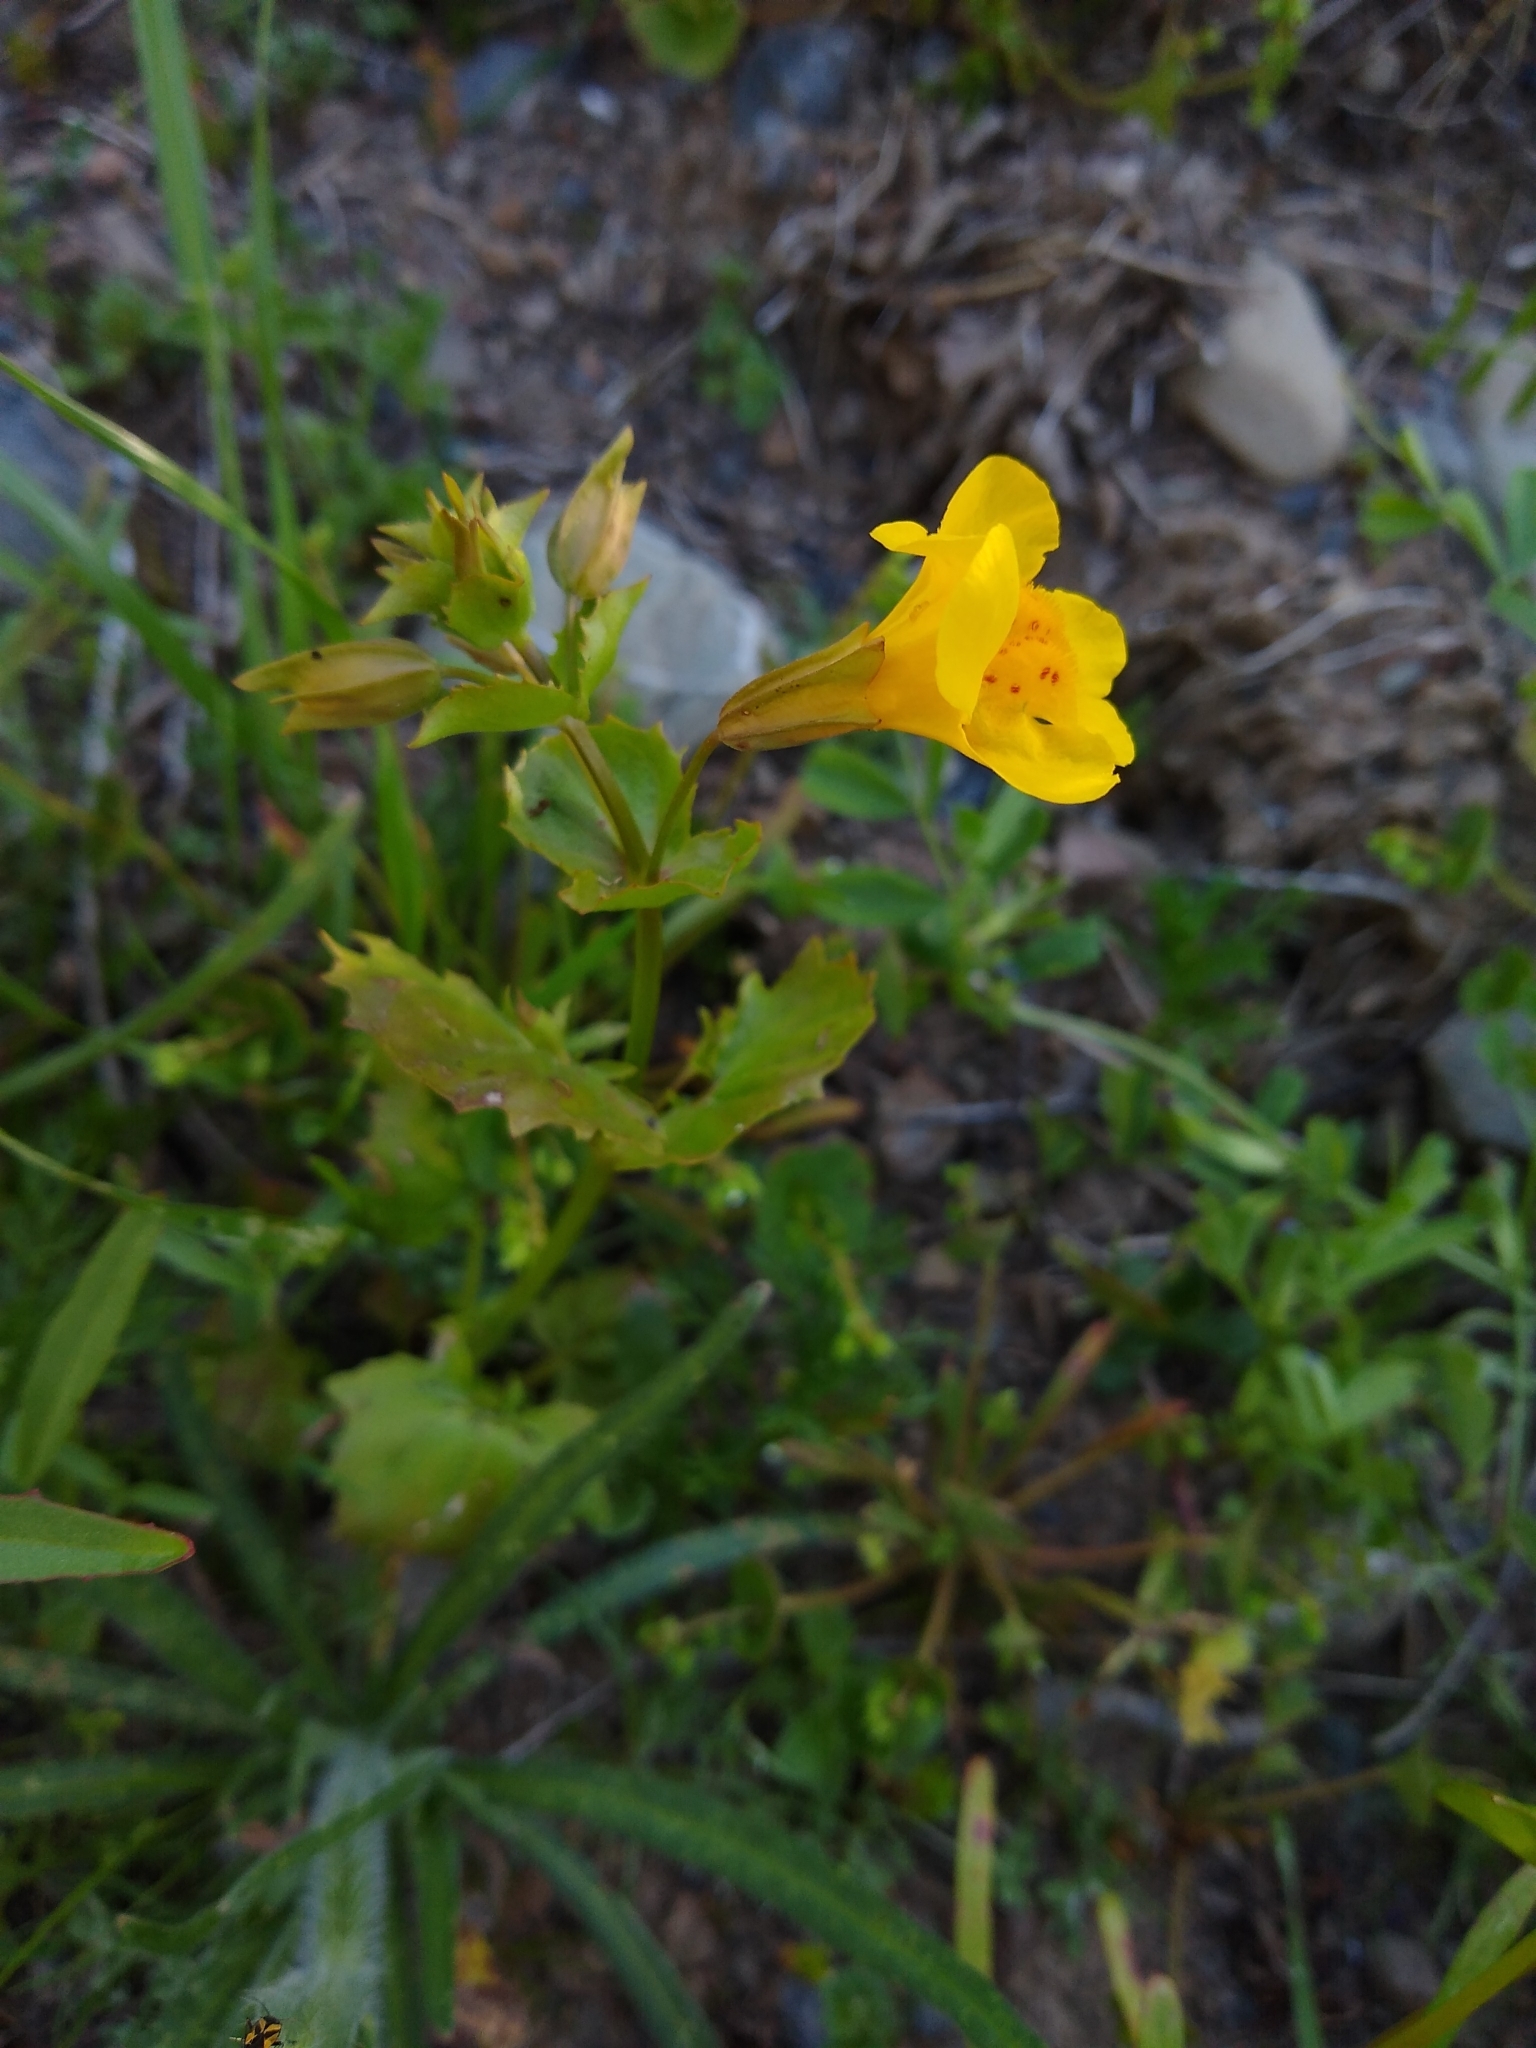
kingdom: Plantae
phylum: Tracheophyta
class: Magnoliopsida
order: Lamiales
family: Phrymaceae
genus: Erythranthe
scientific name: Erythranthe guttata
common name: Monkeyflower
